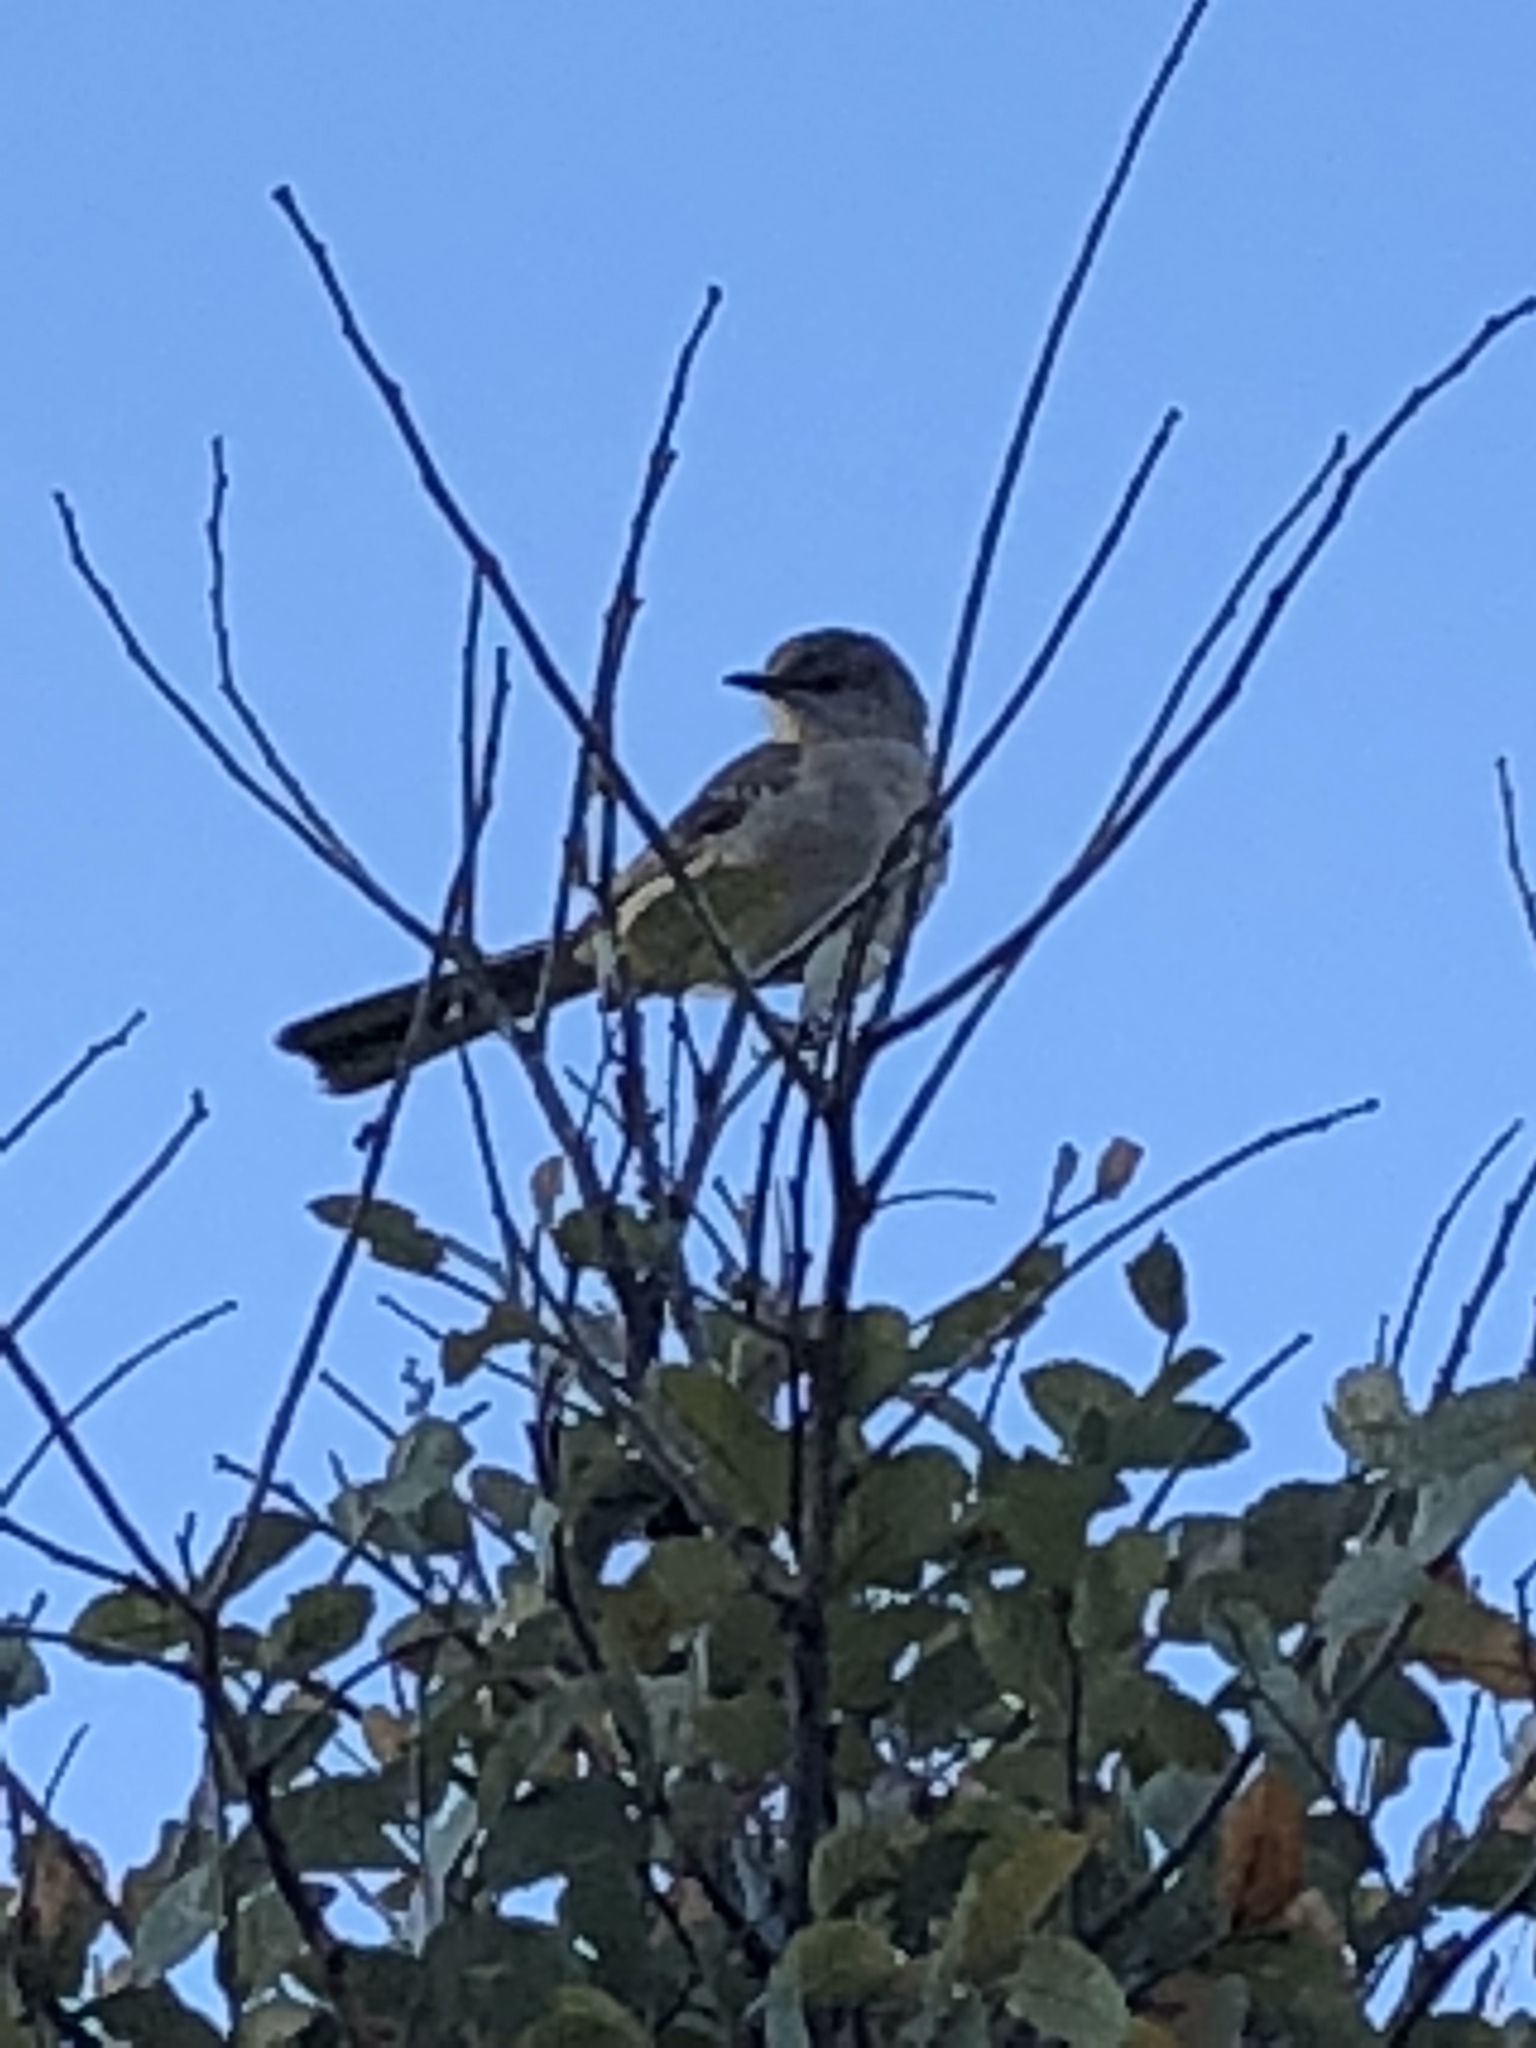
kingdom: Animalia
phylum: Chordata
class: Aves
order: Passeriformes
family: Mimidae
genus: Mimus
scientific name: Mimus polyglottos
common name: Northern mockingbird
